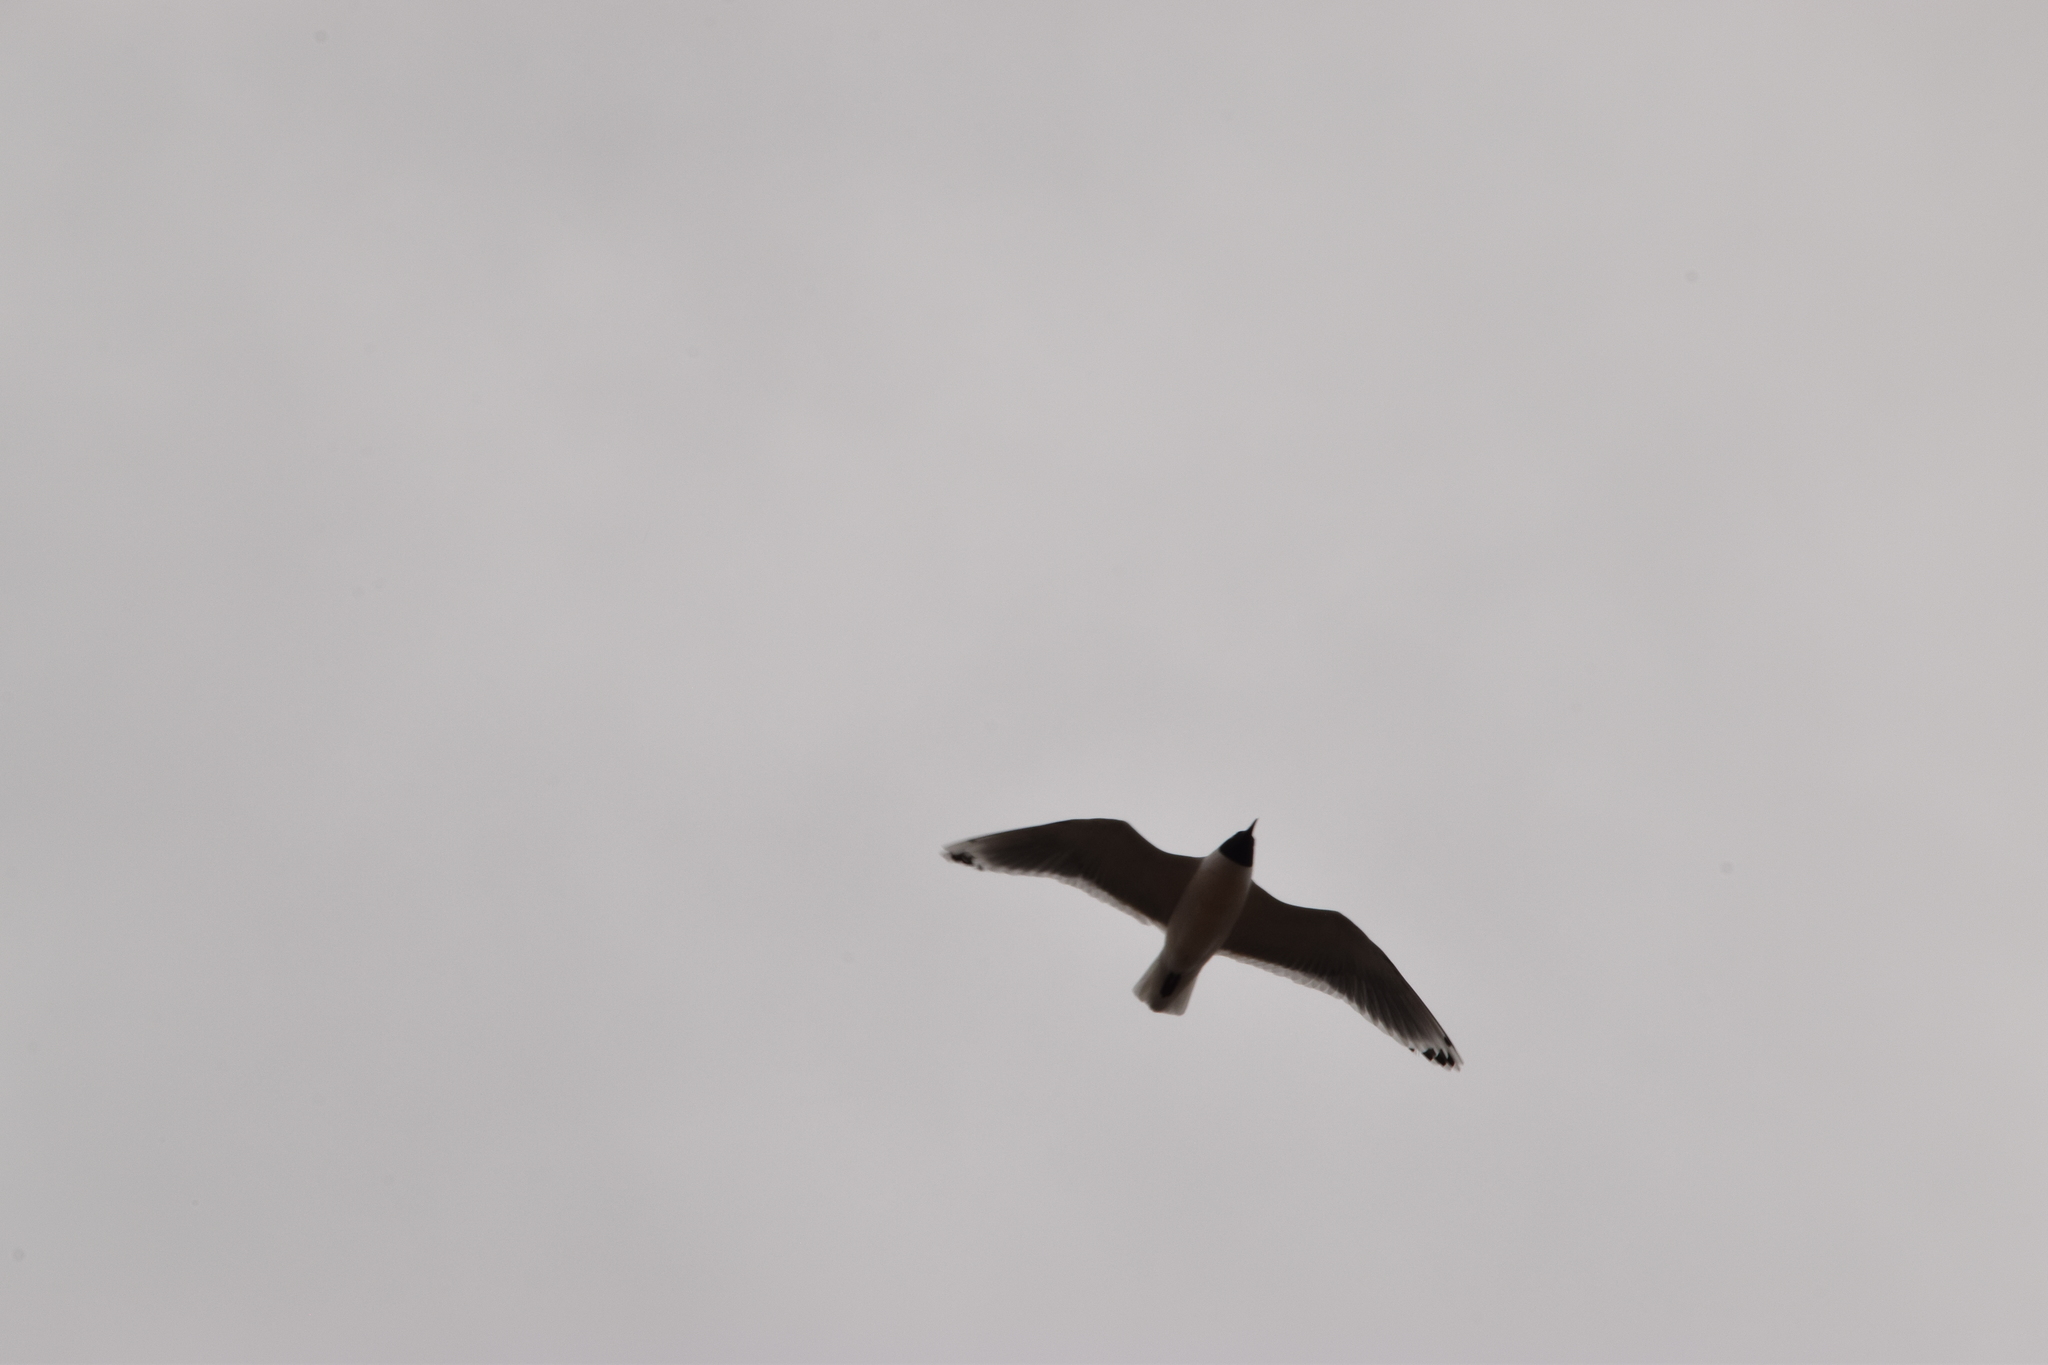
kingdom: Animalia
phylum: Chordata
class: Aves
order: Charadriiformes
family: Laridae
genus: Leucophaeus
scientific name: Leucophaeus pipixcan
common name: Franklin's gull
